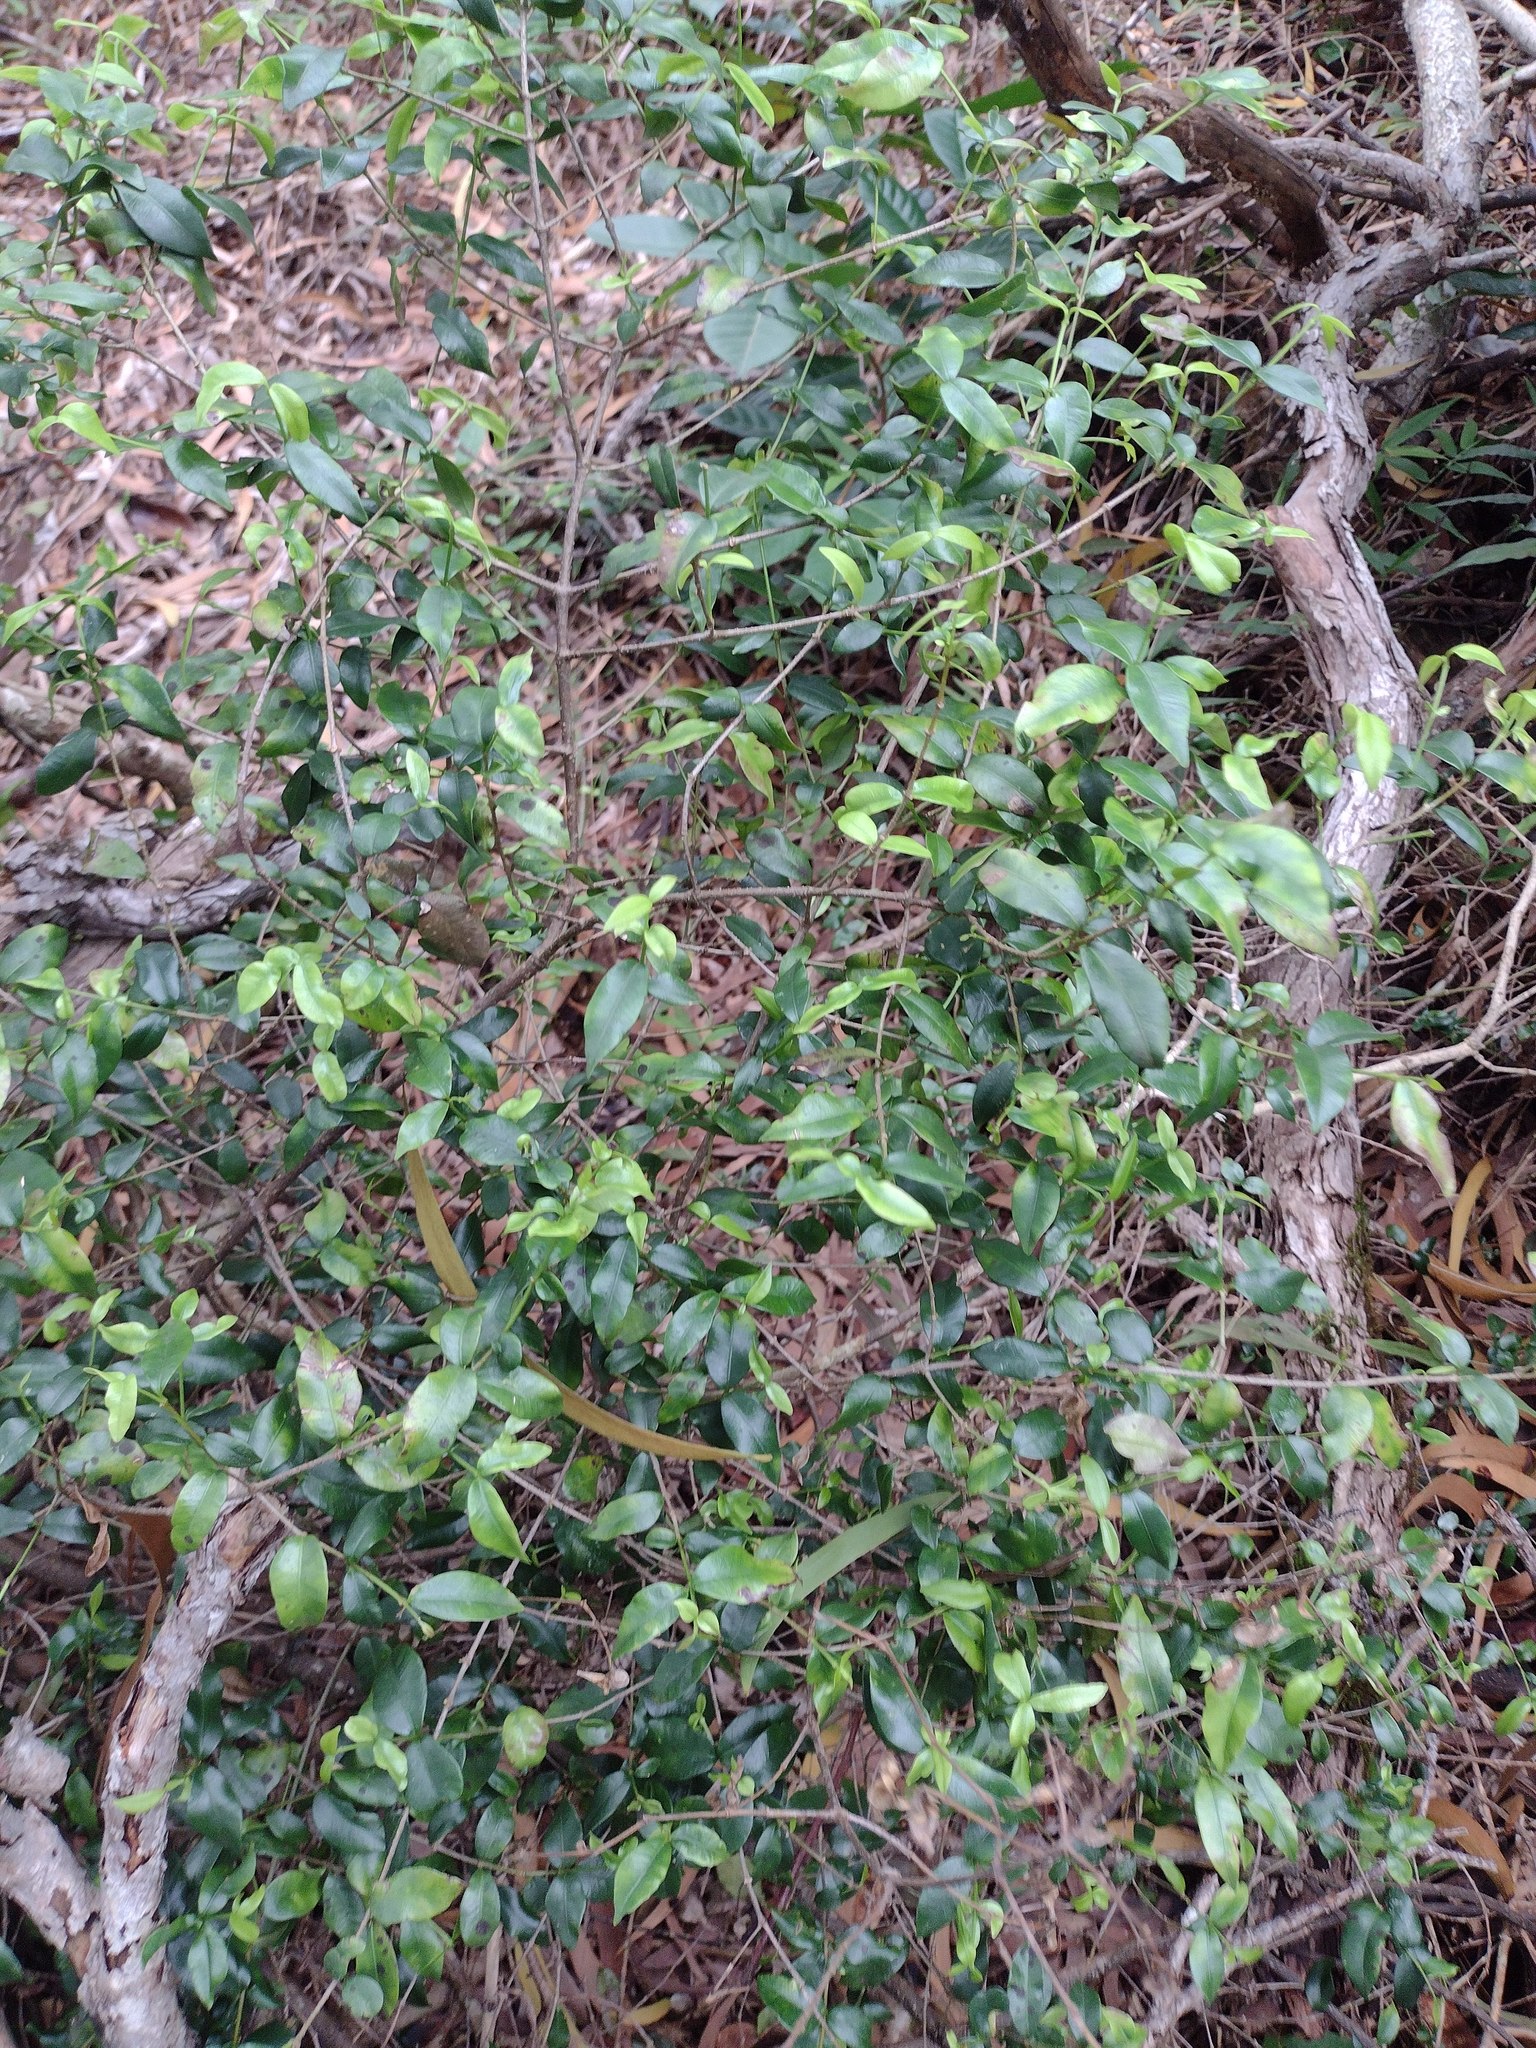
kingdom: Plantae
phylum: Tracheophyta
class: Magnoliopsida
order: Gentianales
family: Apocynaceae
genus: Alyxia
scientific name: Alyxia stellata
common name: Maile
